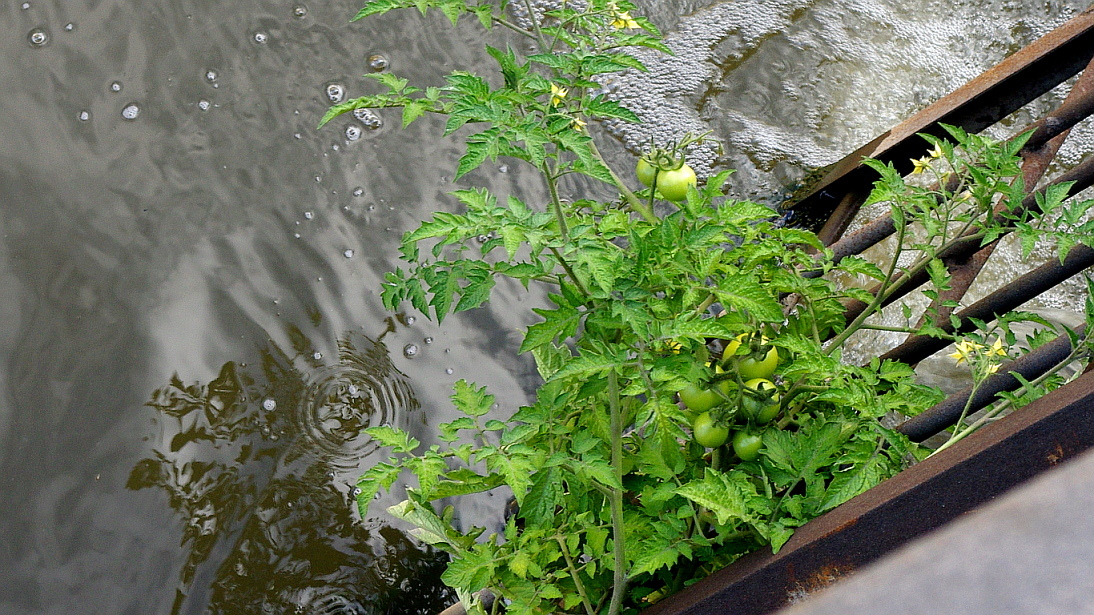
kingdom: Plantae
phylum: Tracheophyta
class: Magnoliopsida
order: Solanales
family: Solanaceae
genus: Solanum
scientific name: Solanum lycopersicum
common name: Garden tomato
